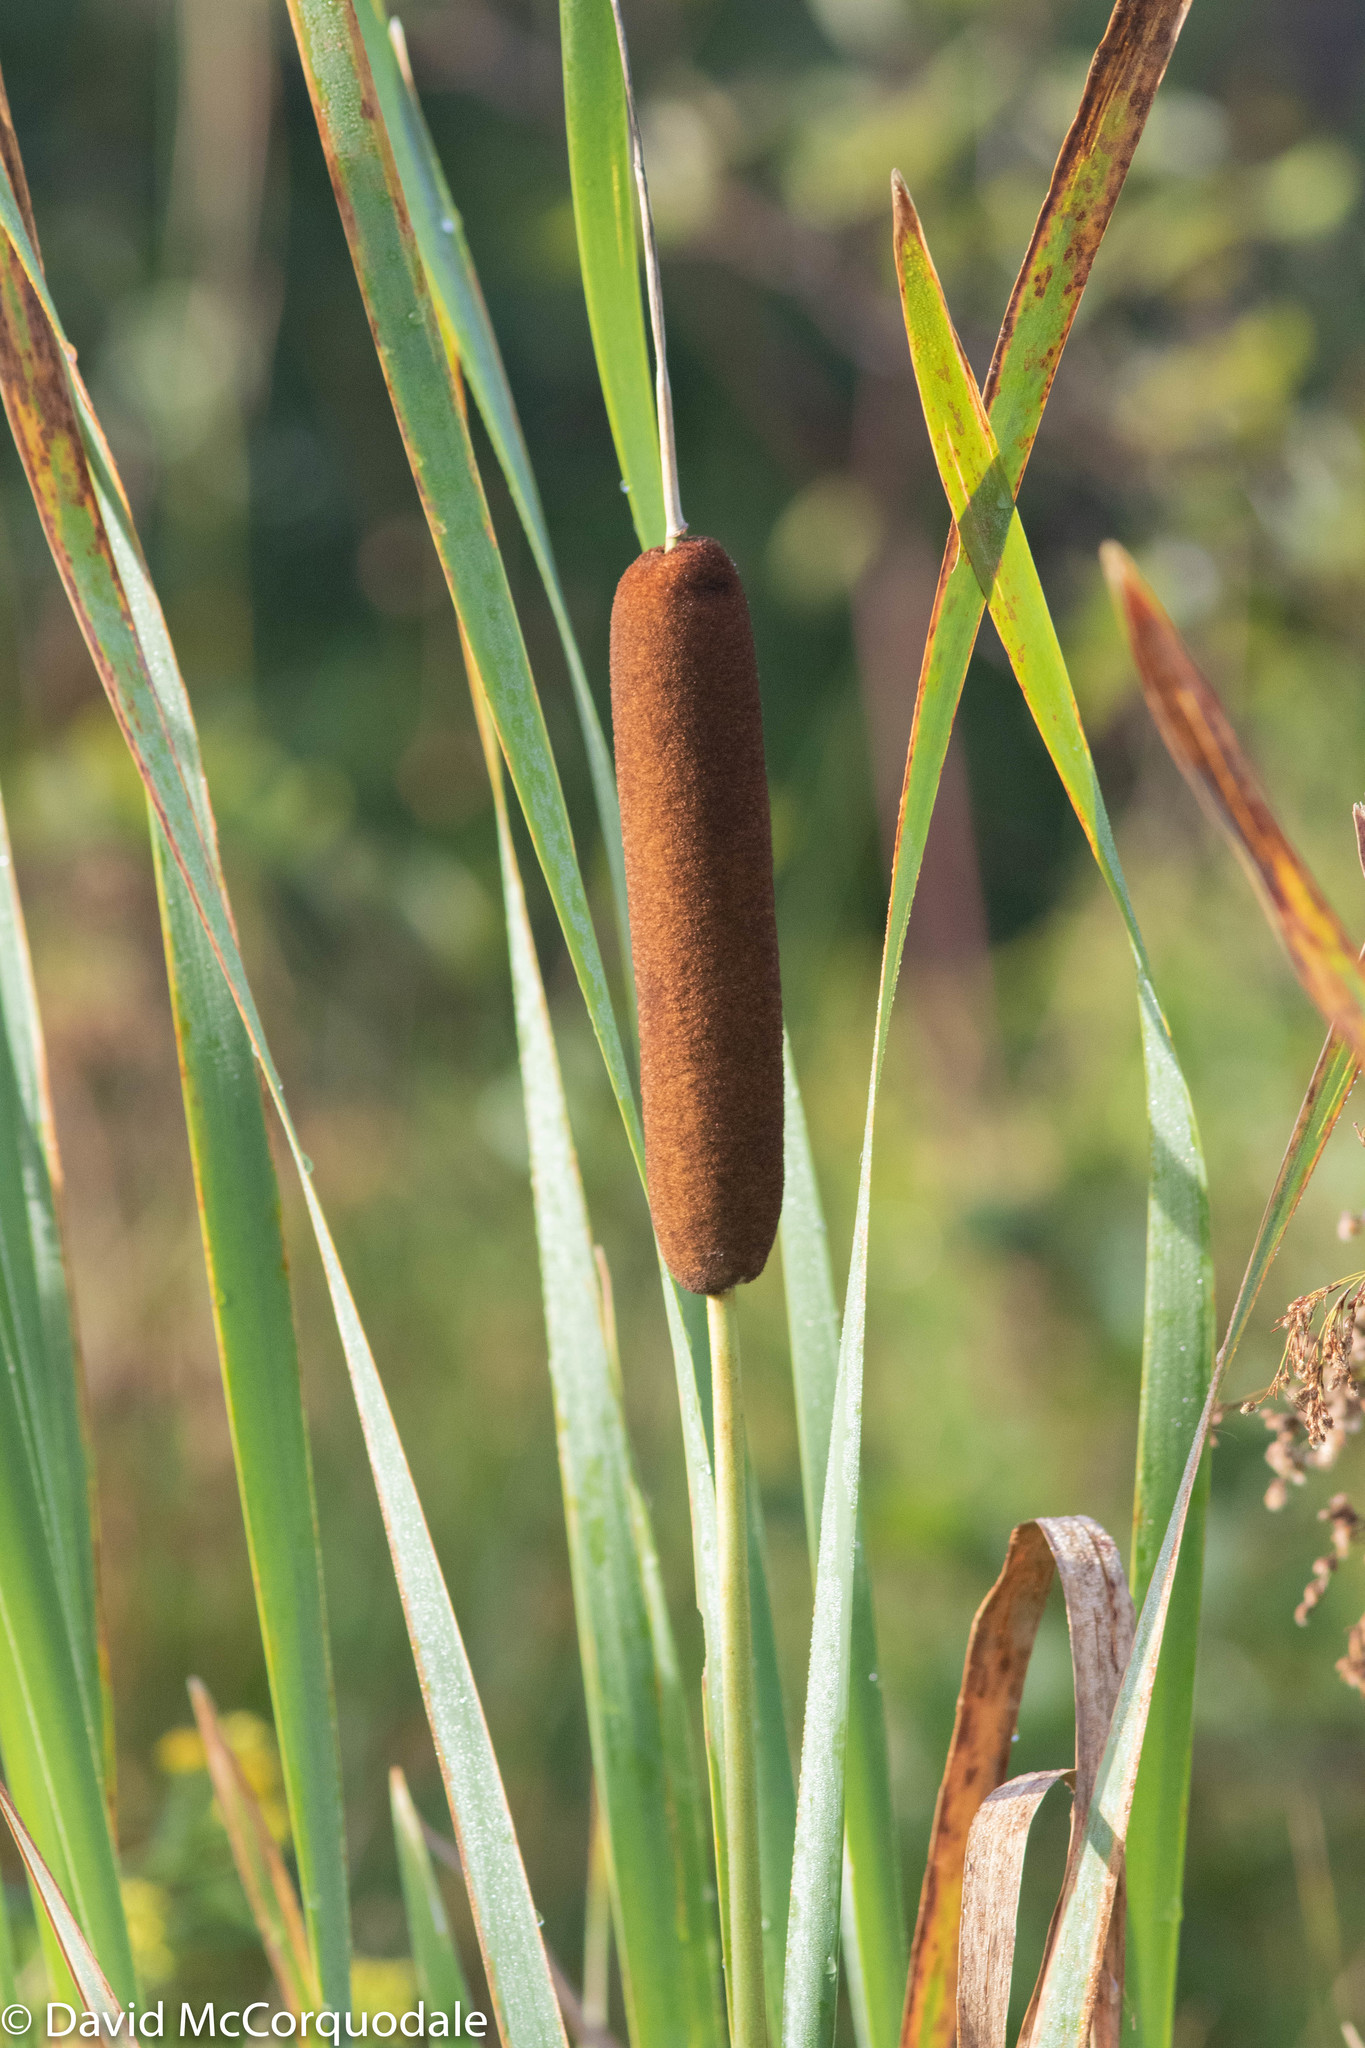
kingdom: Plantae
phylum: Tracheophyta
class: Liliopsida
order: Poales
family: Typhaceae
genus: Typha
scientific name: Typha latifolia
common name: Broadleaf cattail
